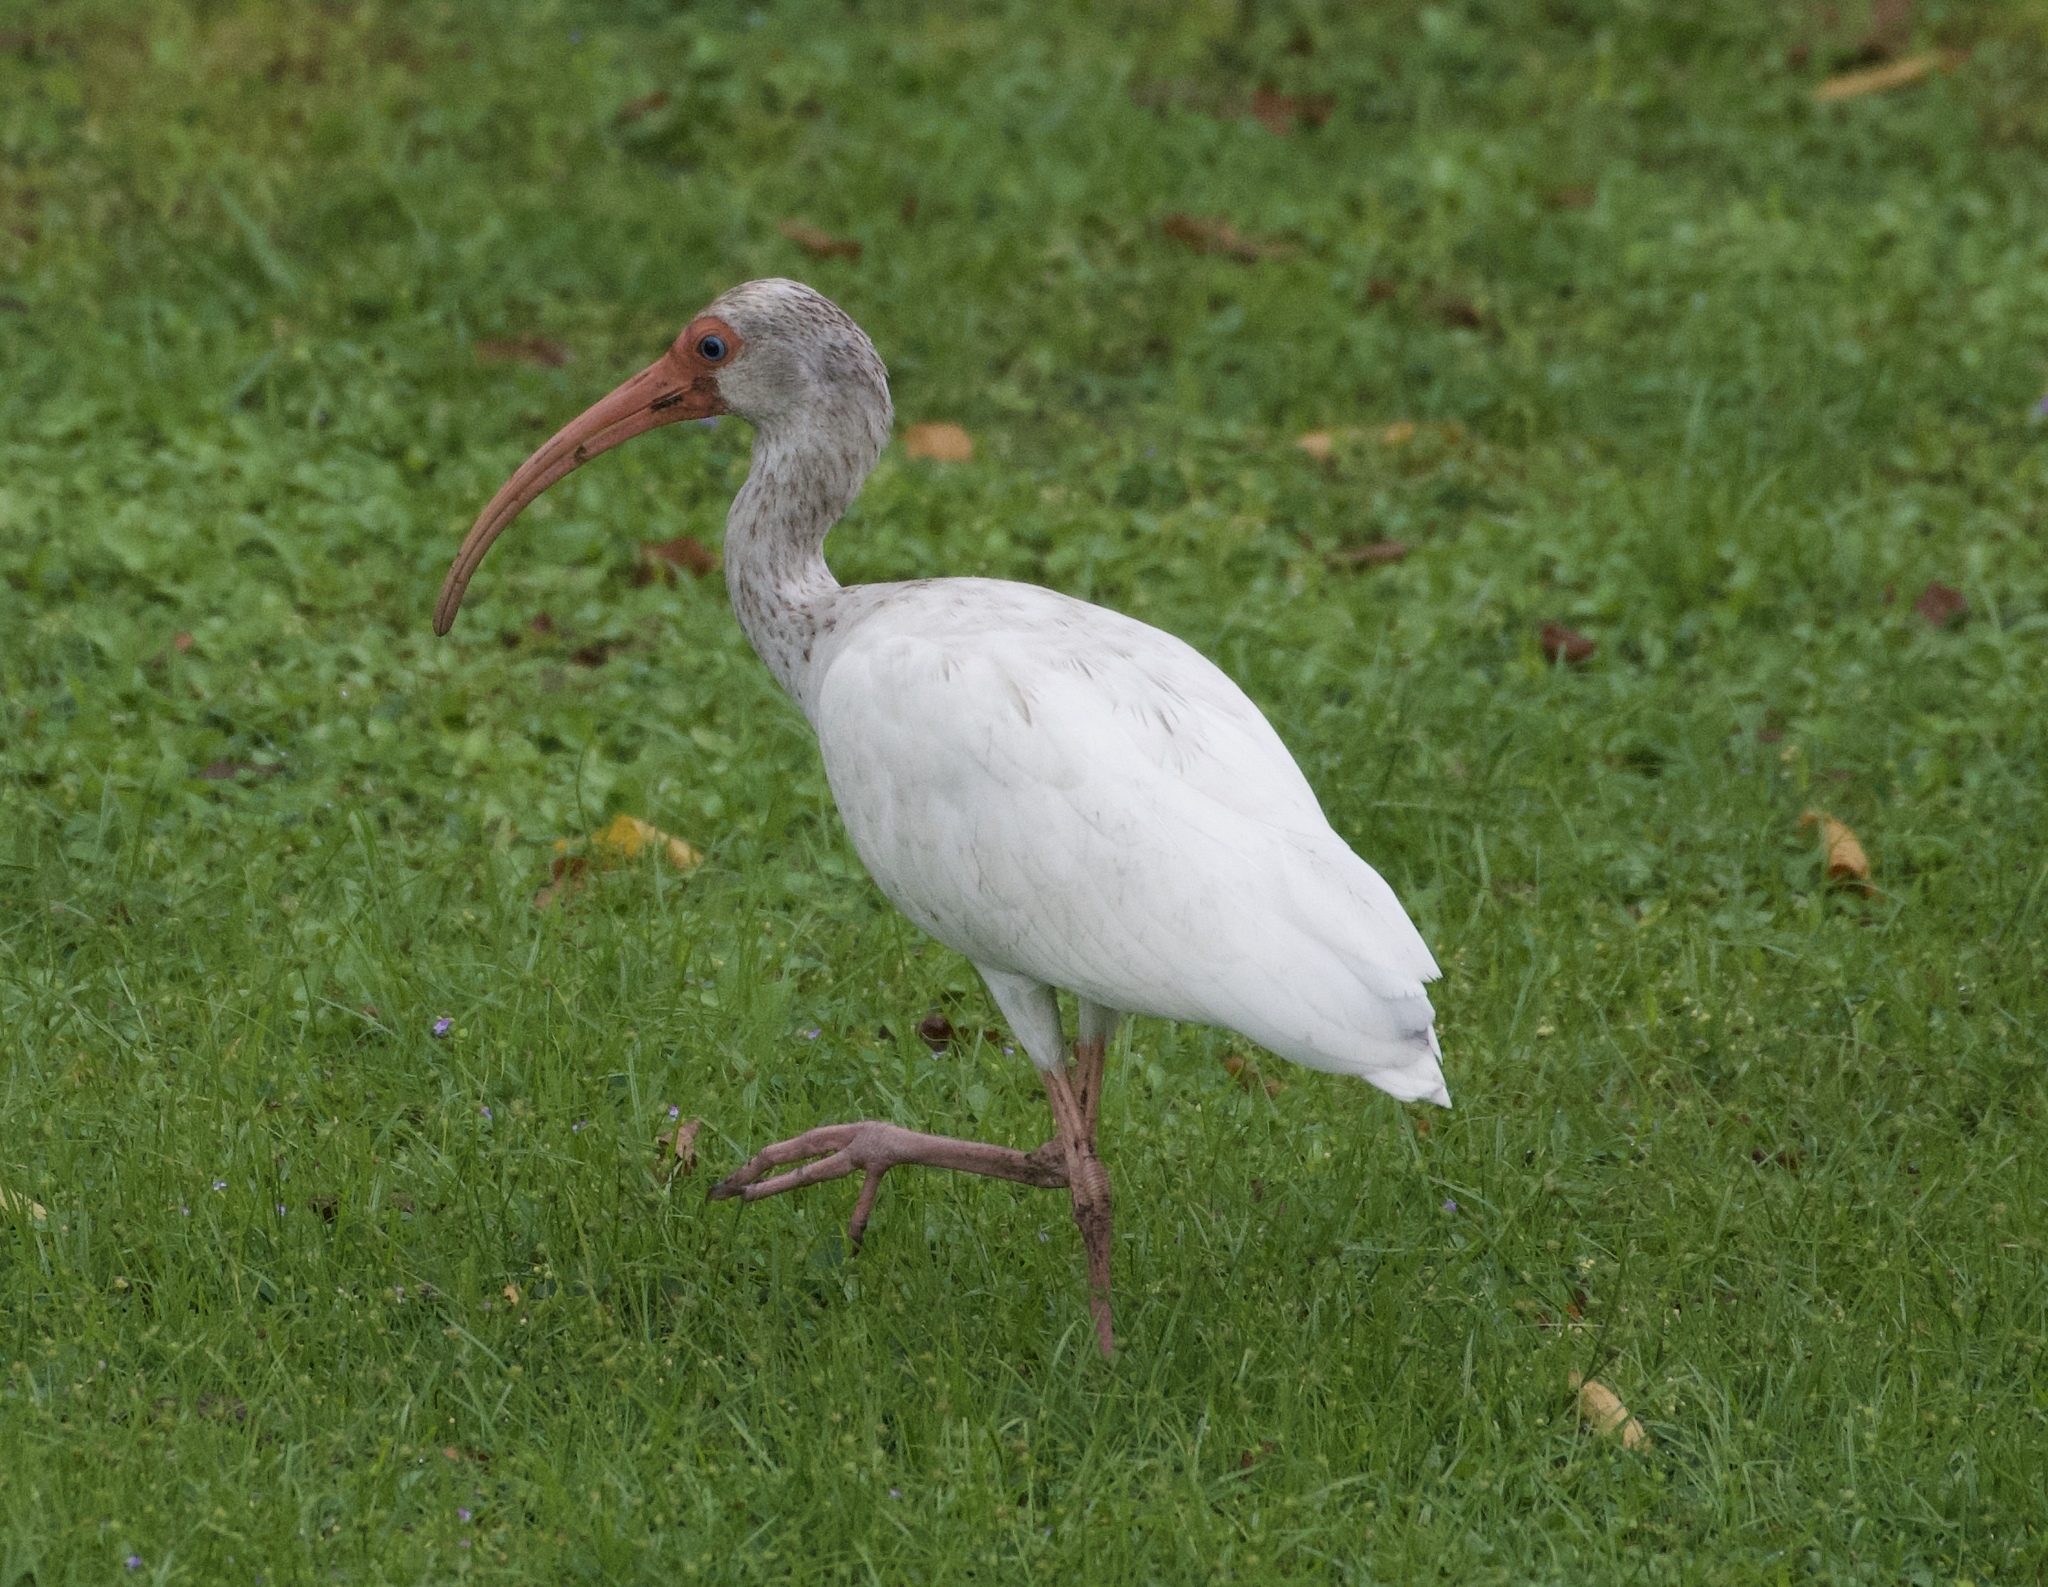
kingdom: Animalia
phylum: Chordata
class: Aves
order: Pelecaniformes
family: Threskiornithidae
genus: Eudocimus
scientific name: Eudocimus albus
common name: White ibis
